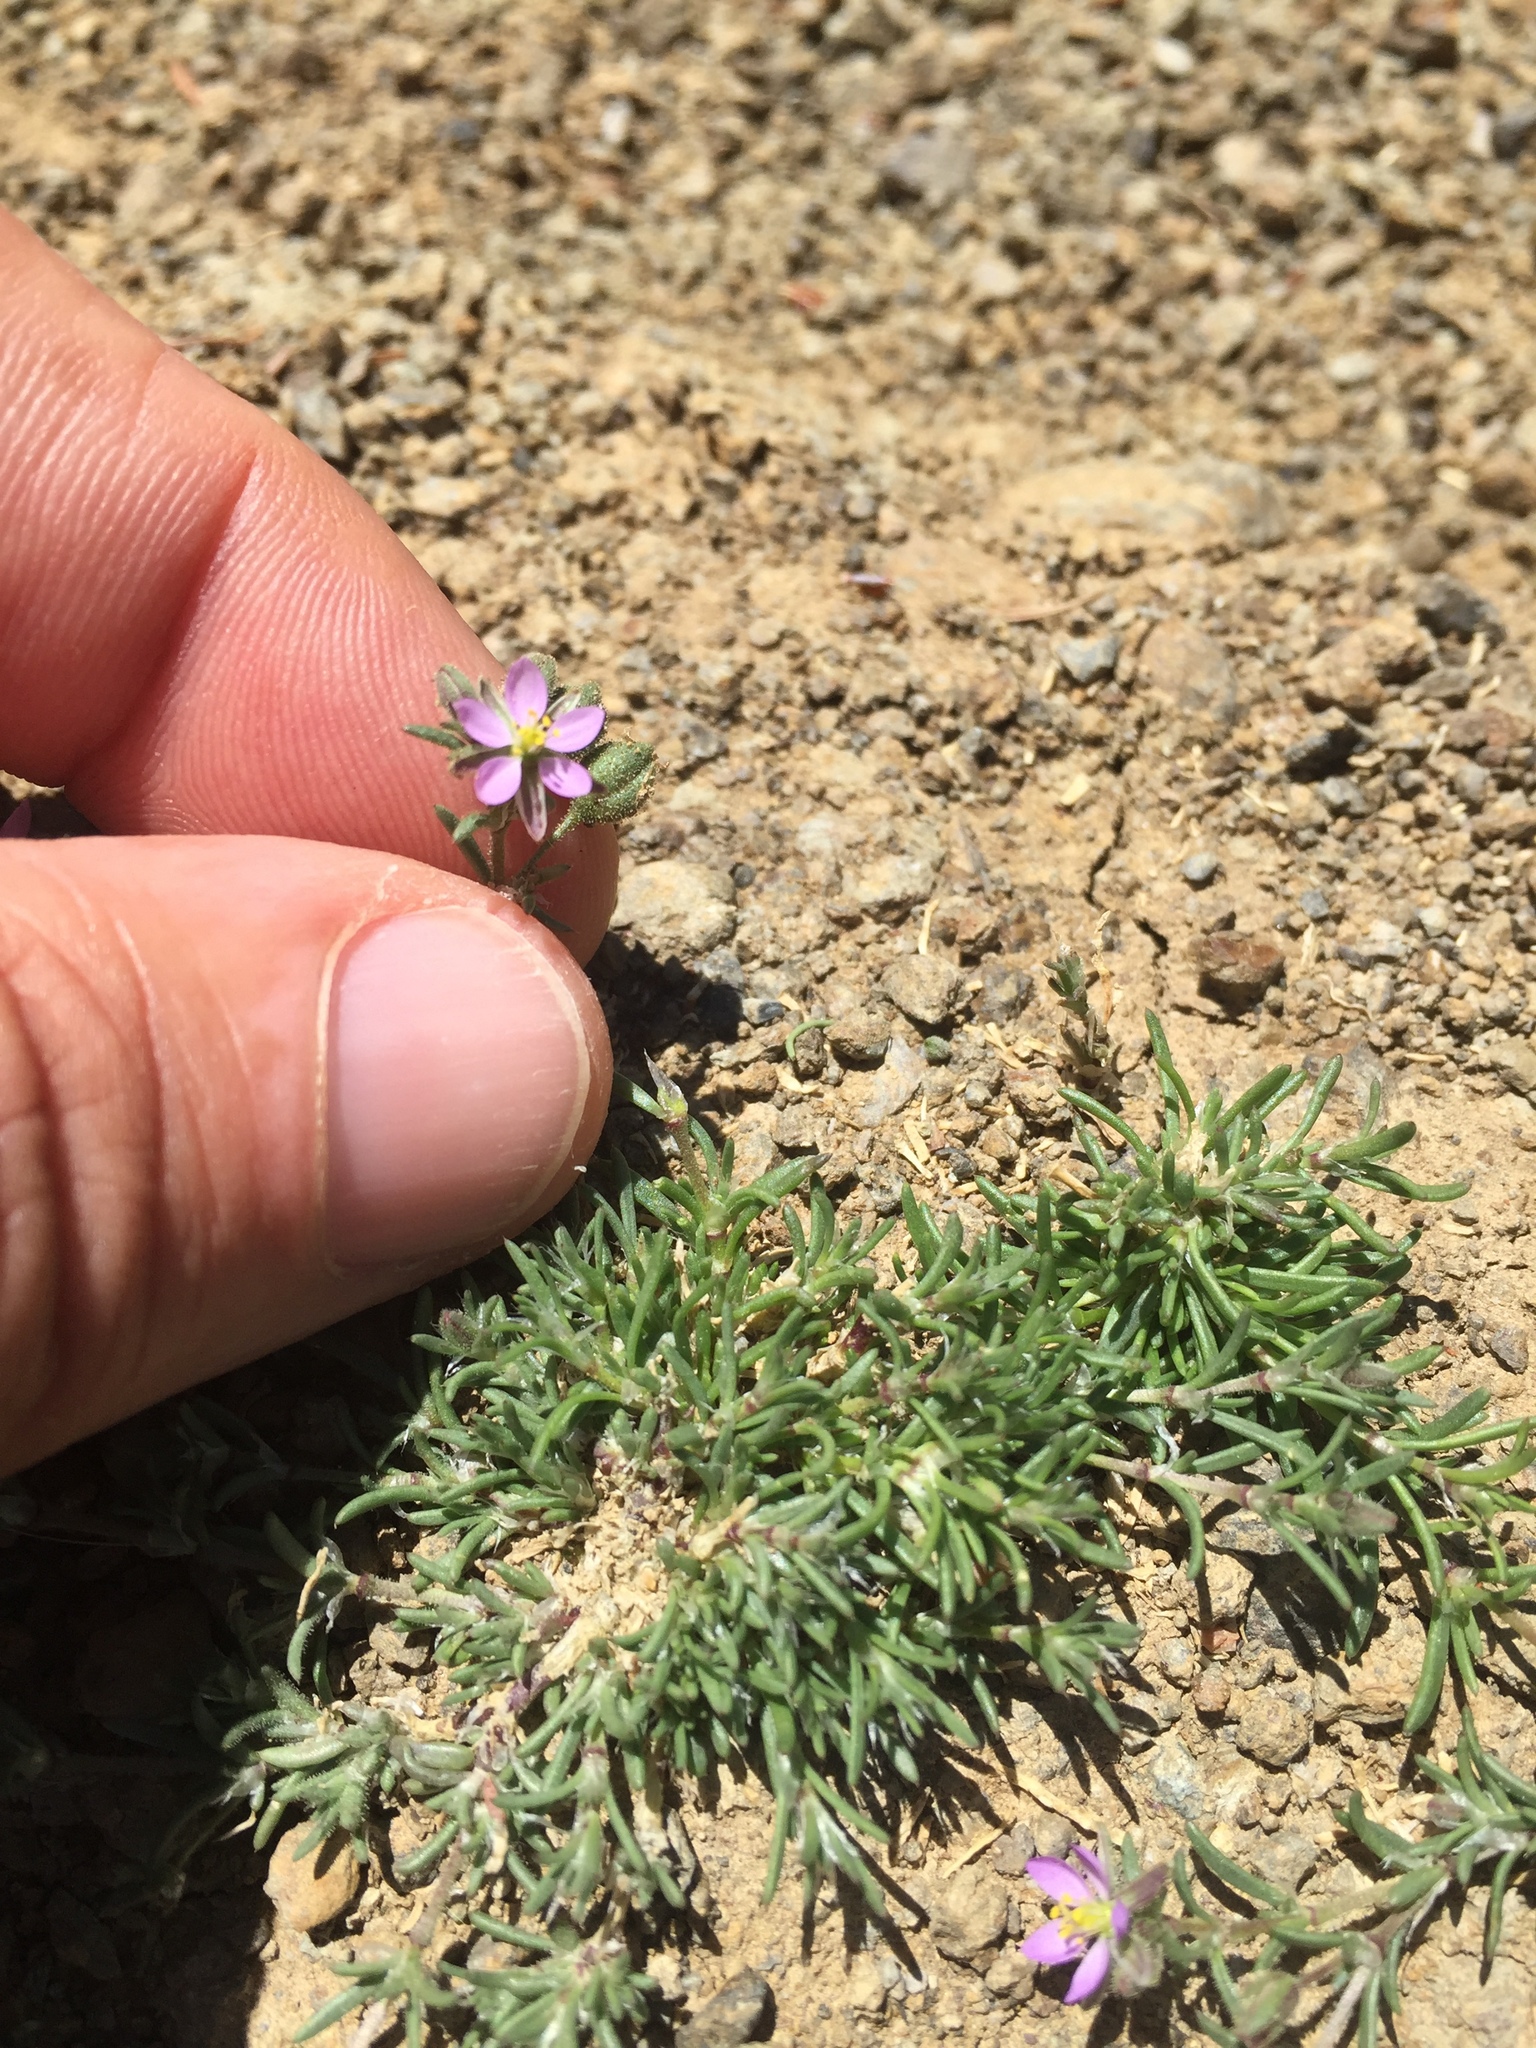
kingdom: Plantae
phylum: Tracheophyta
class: Magnoliopsida
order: Caryophyllales
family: Caryophyllaceae
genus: Spergularia
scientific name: Spergularia rubra
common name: Red sand-spurrey
